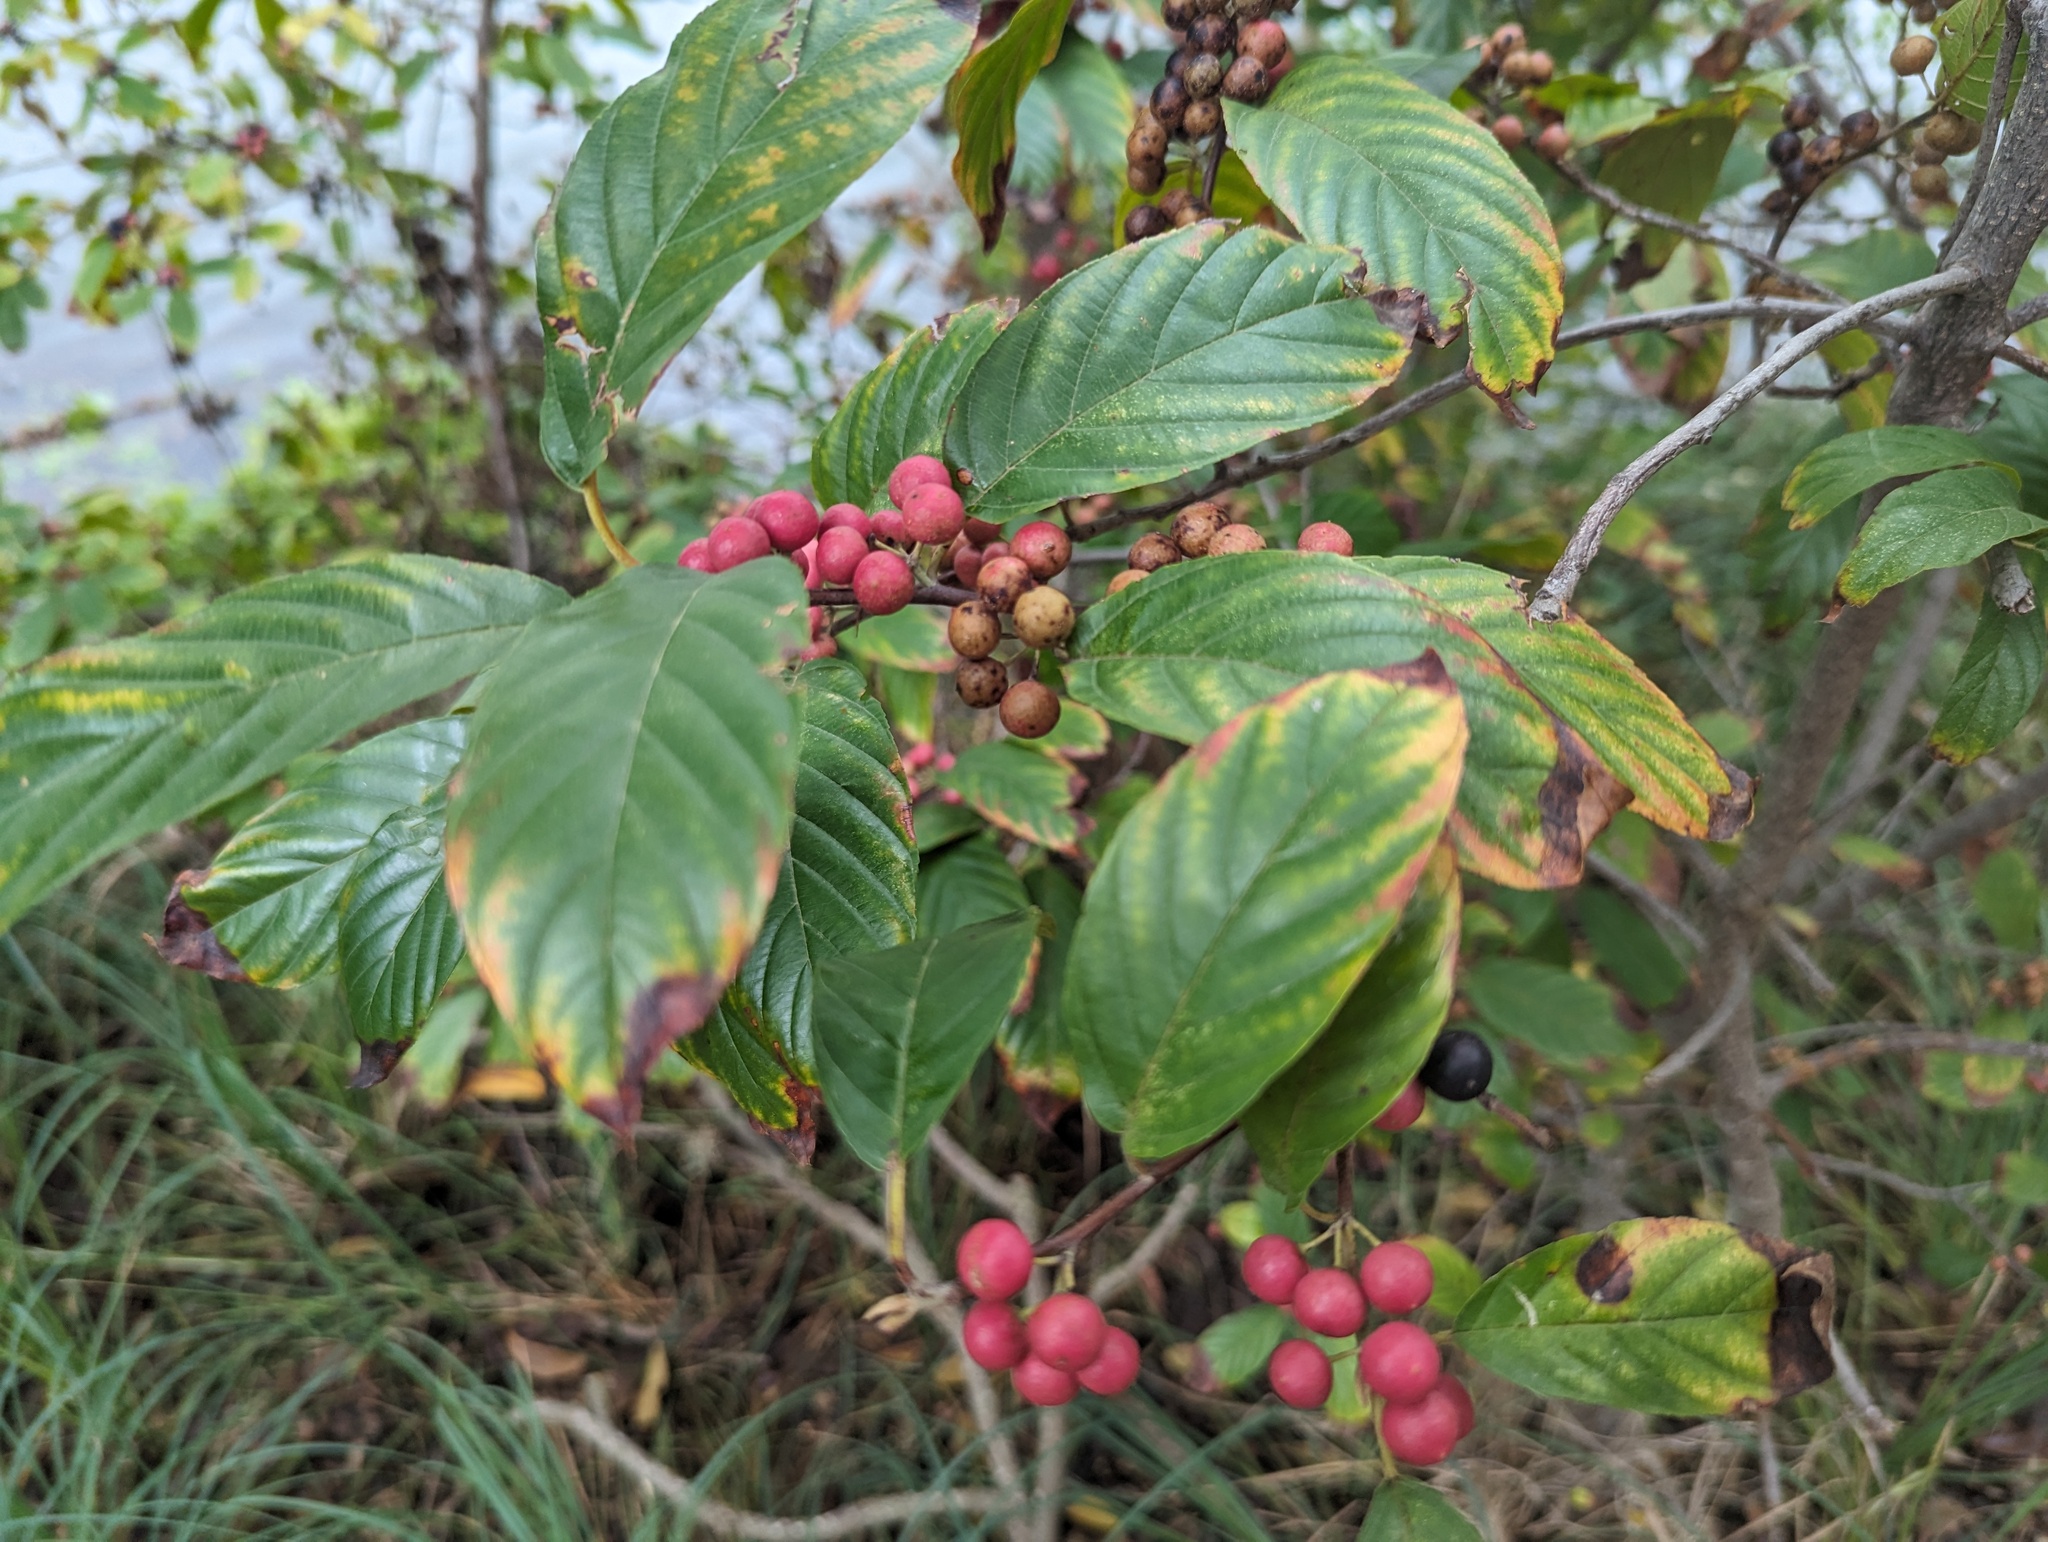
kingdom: Plantae
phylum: Tracheophyta
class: Magnoliopsida
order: Rosales
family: Rhamnaceae
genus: Frangula
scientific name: Frangula caroliniana
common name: Carolina buckthorn
